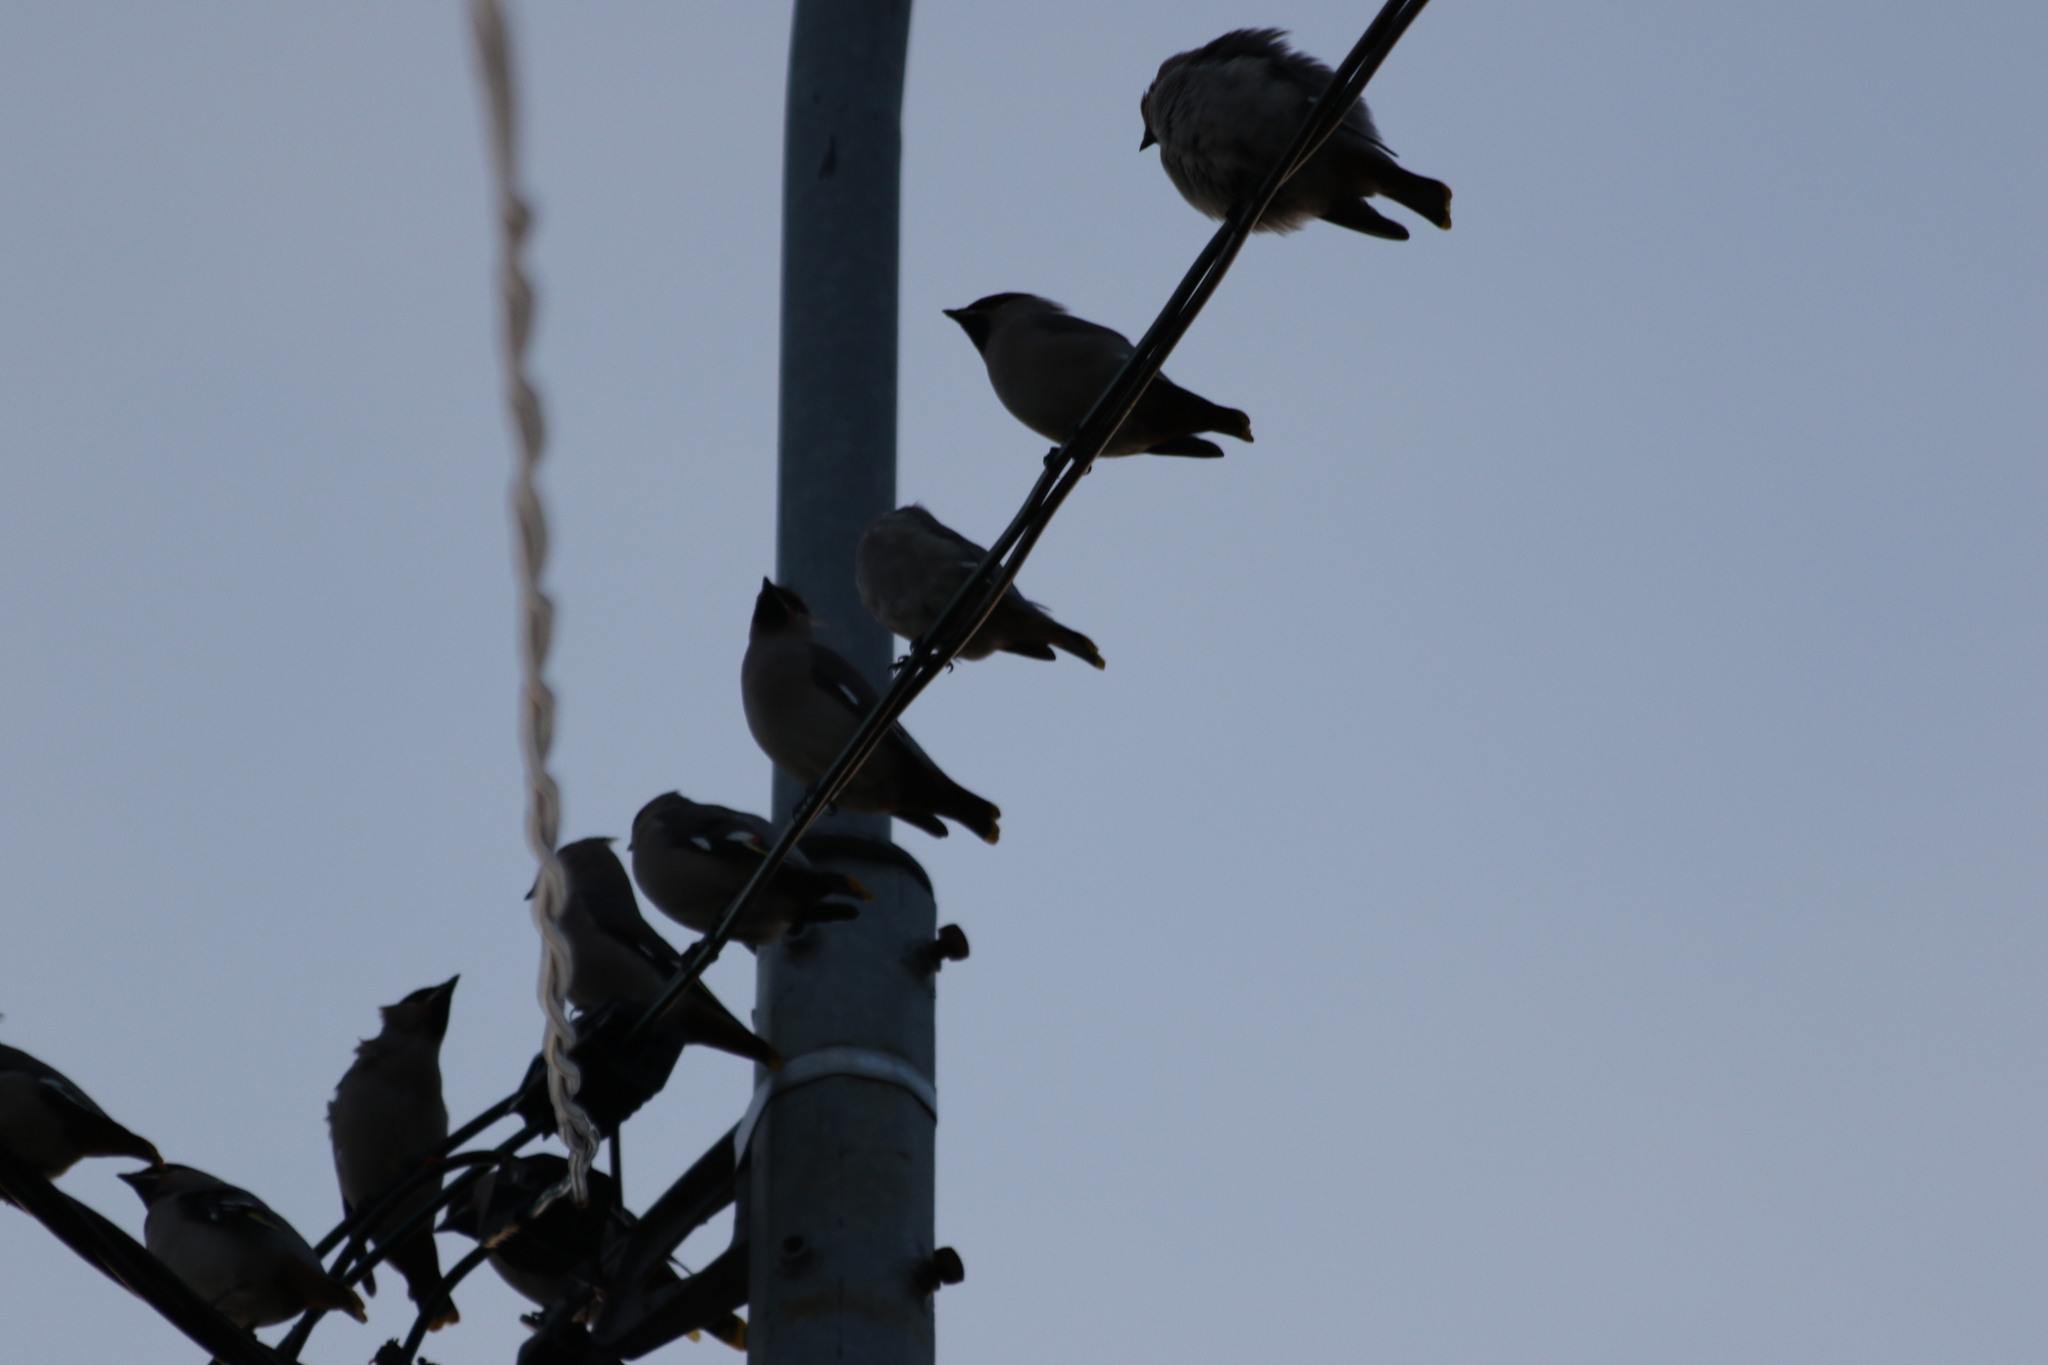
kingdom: Animalia
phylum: Chordata
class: Aves
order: Passeriformes
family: Bombycillidae
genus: Bombycilla
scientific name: Bombycilla garrulus
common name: Bohemian waxwing
